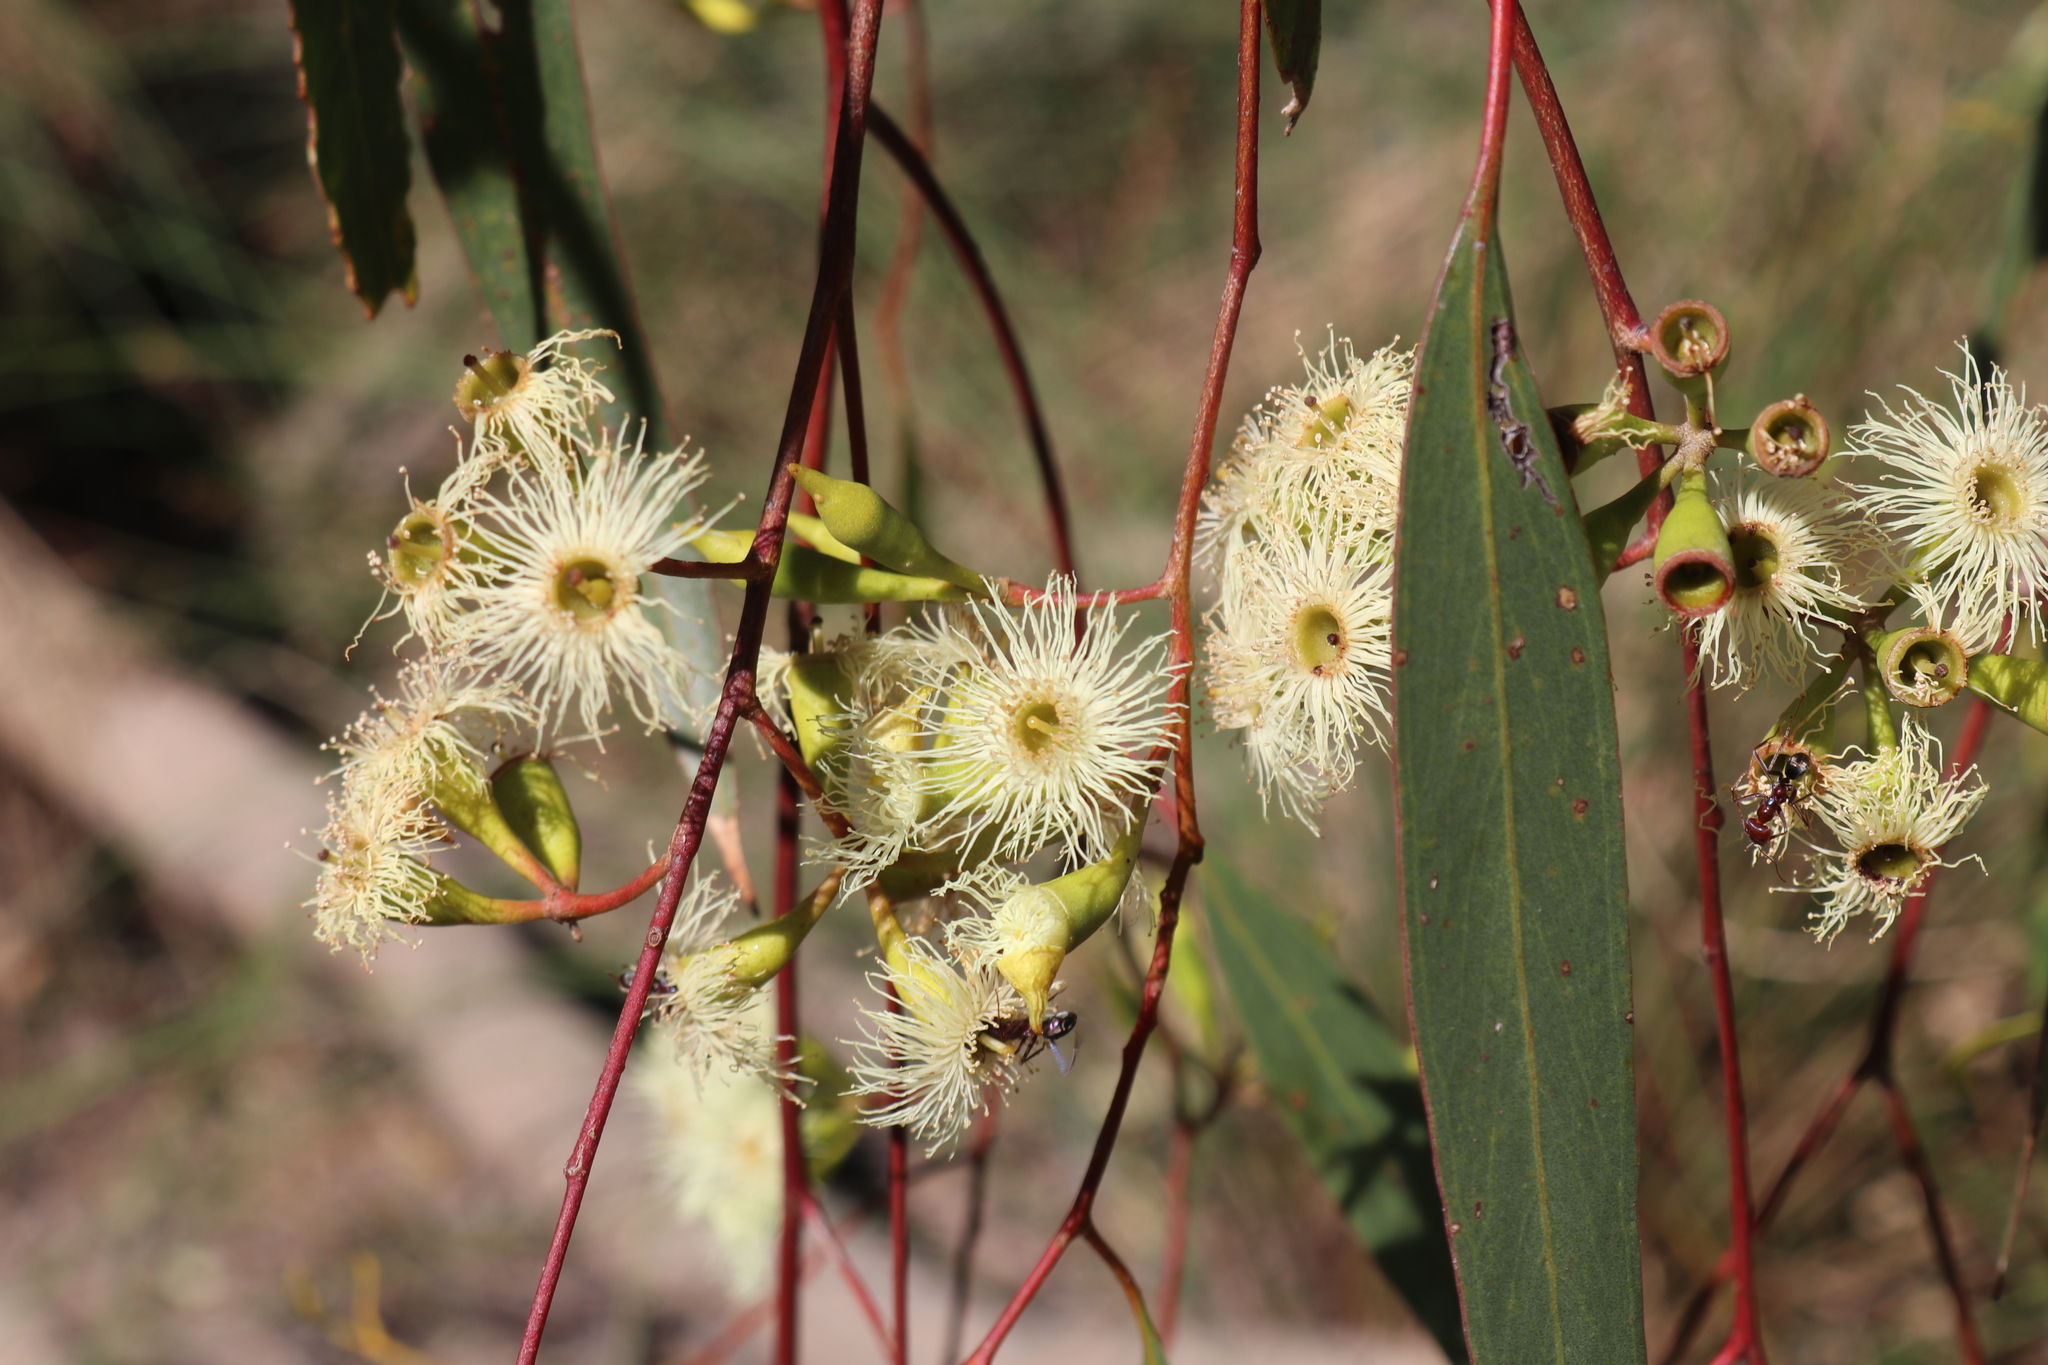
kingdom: Plantae
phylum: Tracheophyta
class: Magnoliopsida
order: Myrtales
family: Myrtaceae
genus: Eucalyptus
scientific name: Eucalyptus ochrophloia
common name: Yapunyah
